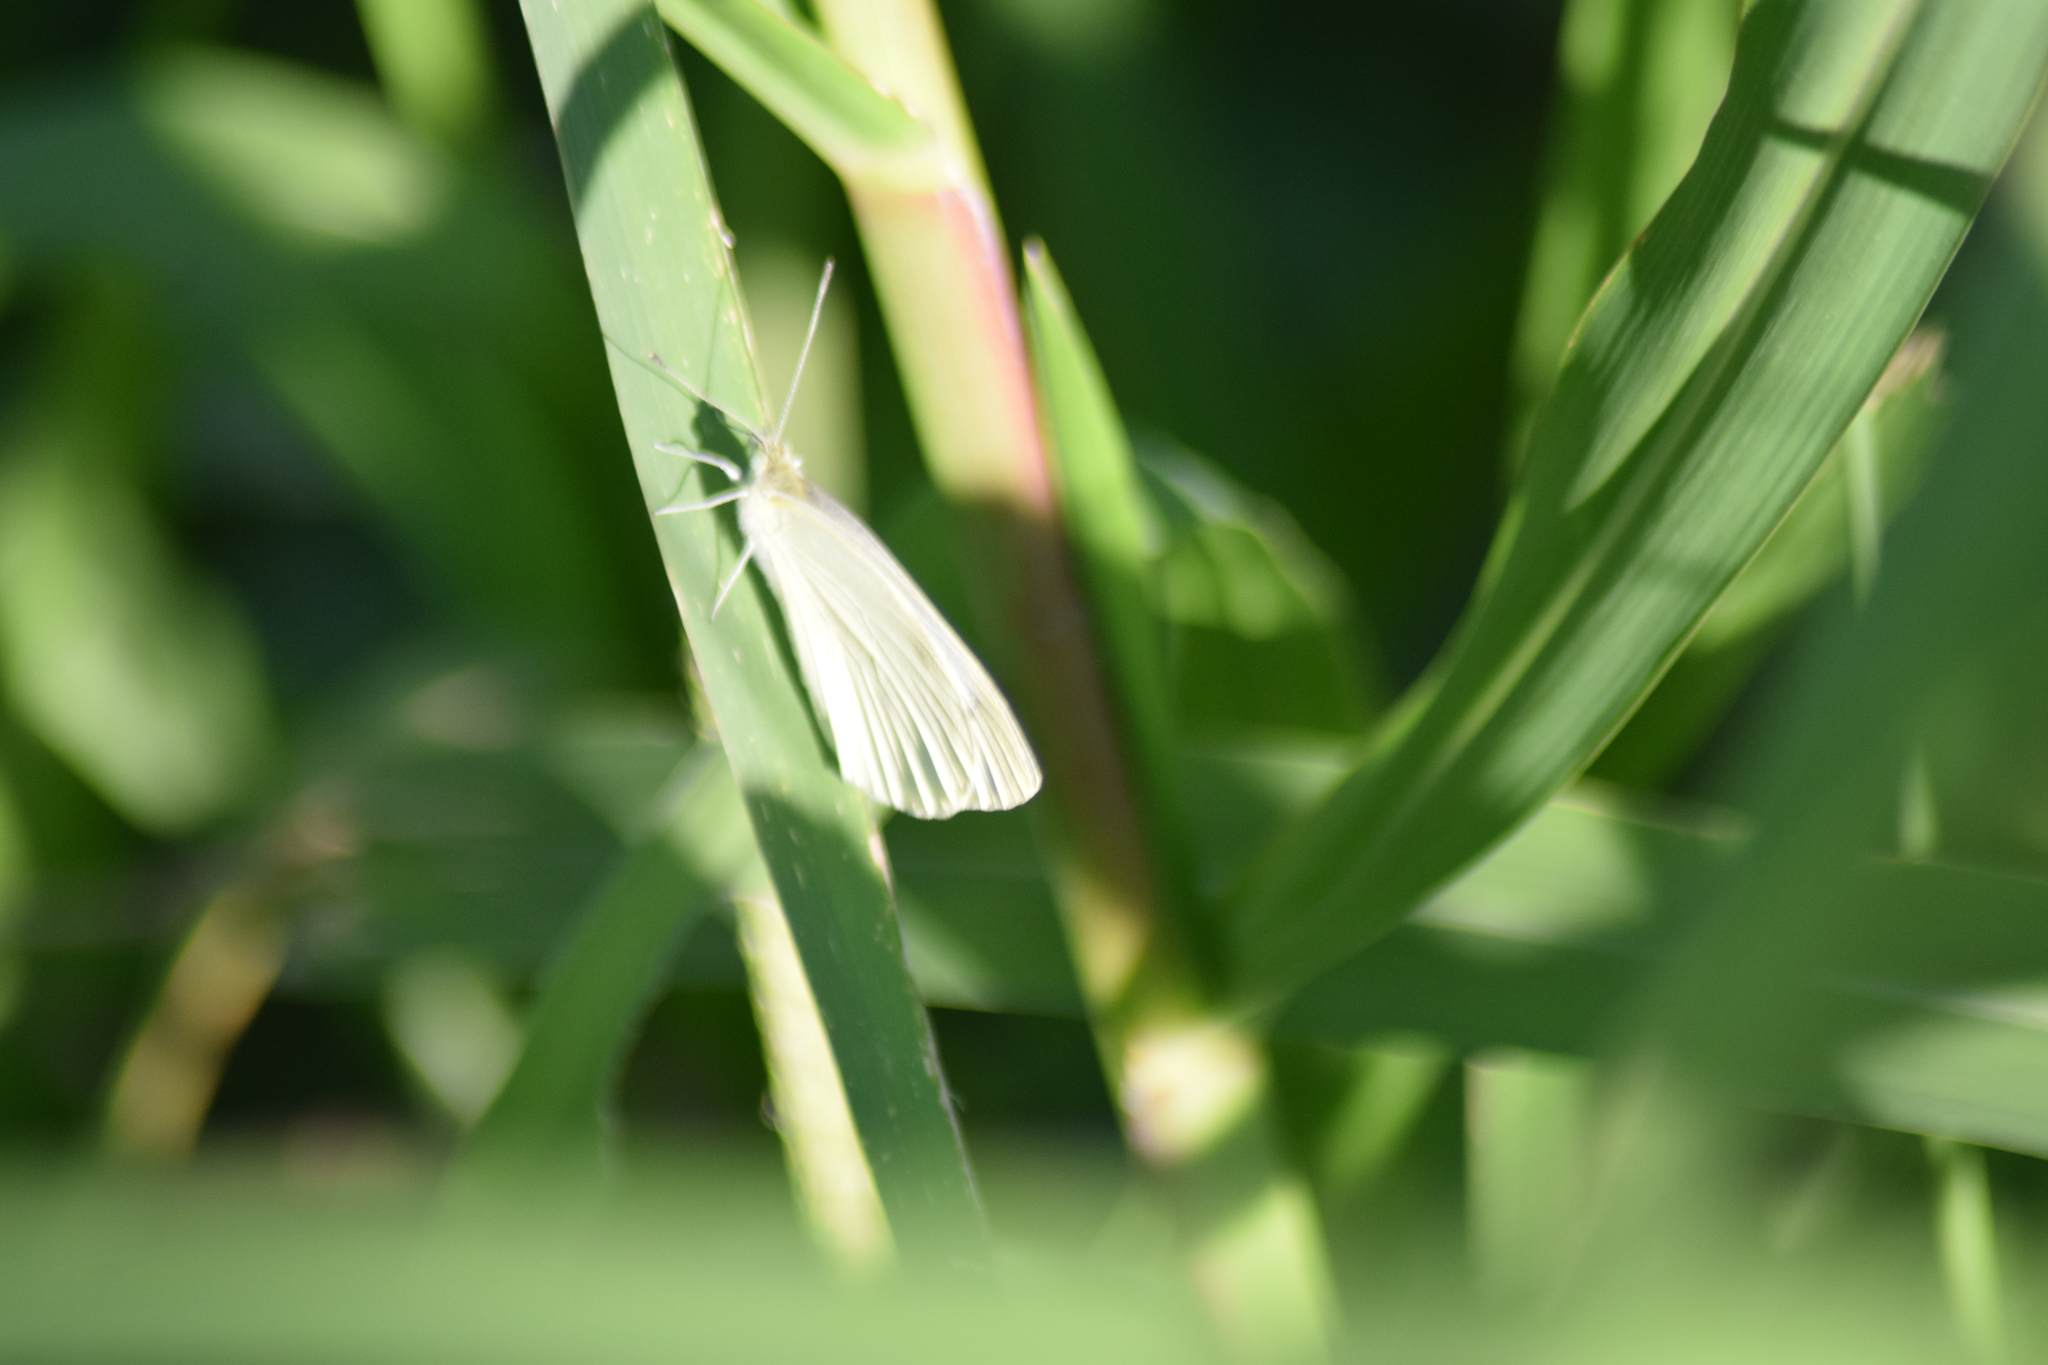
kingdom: Animalia
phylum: Arthropoda
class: Insecta
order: Lepidoptera
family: Pieridae
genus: Pieris
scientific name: Pieris rapae
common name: Small white
